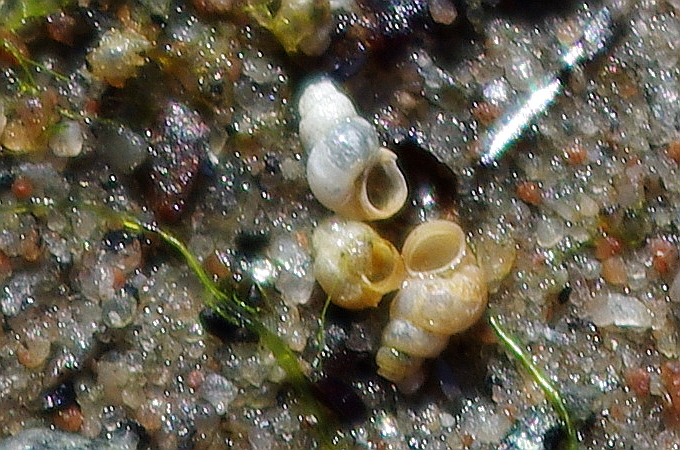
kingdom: Animalia
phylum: Mollusca
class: Gastropoda
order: Littorinimorpha
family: Hydrobiidae
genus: Peringia
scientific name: Peringia ulvae
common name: Laver spire shell
